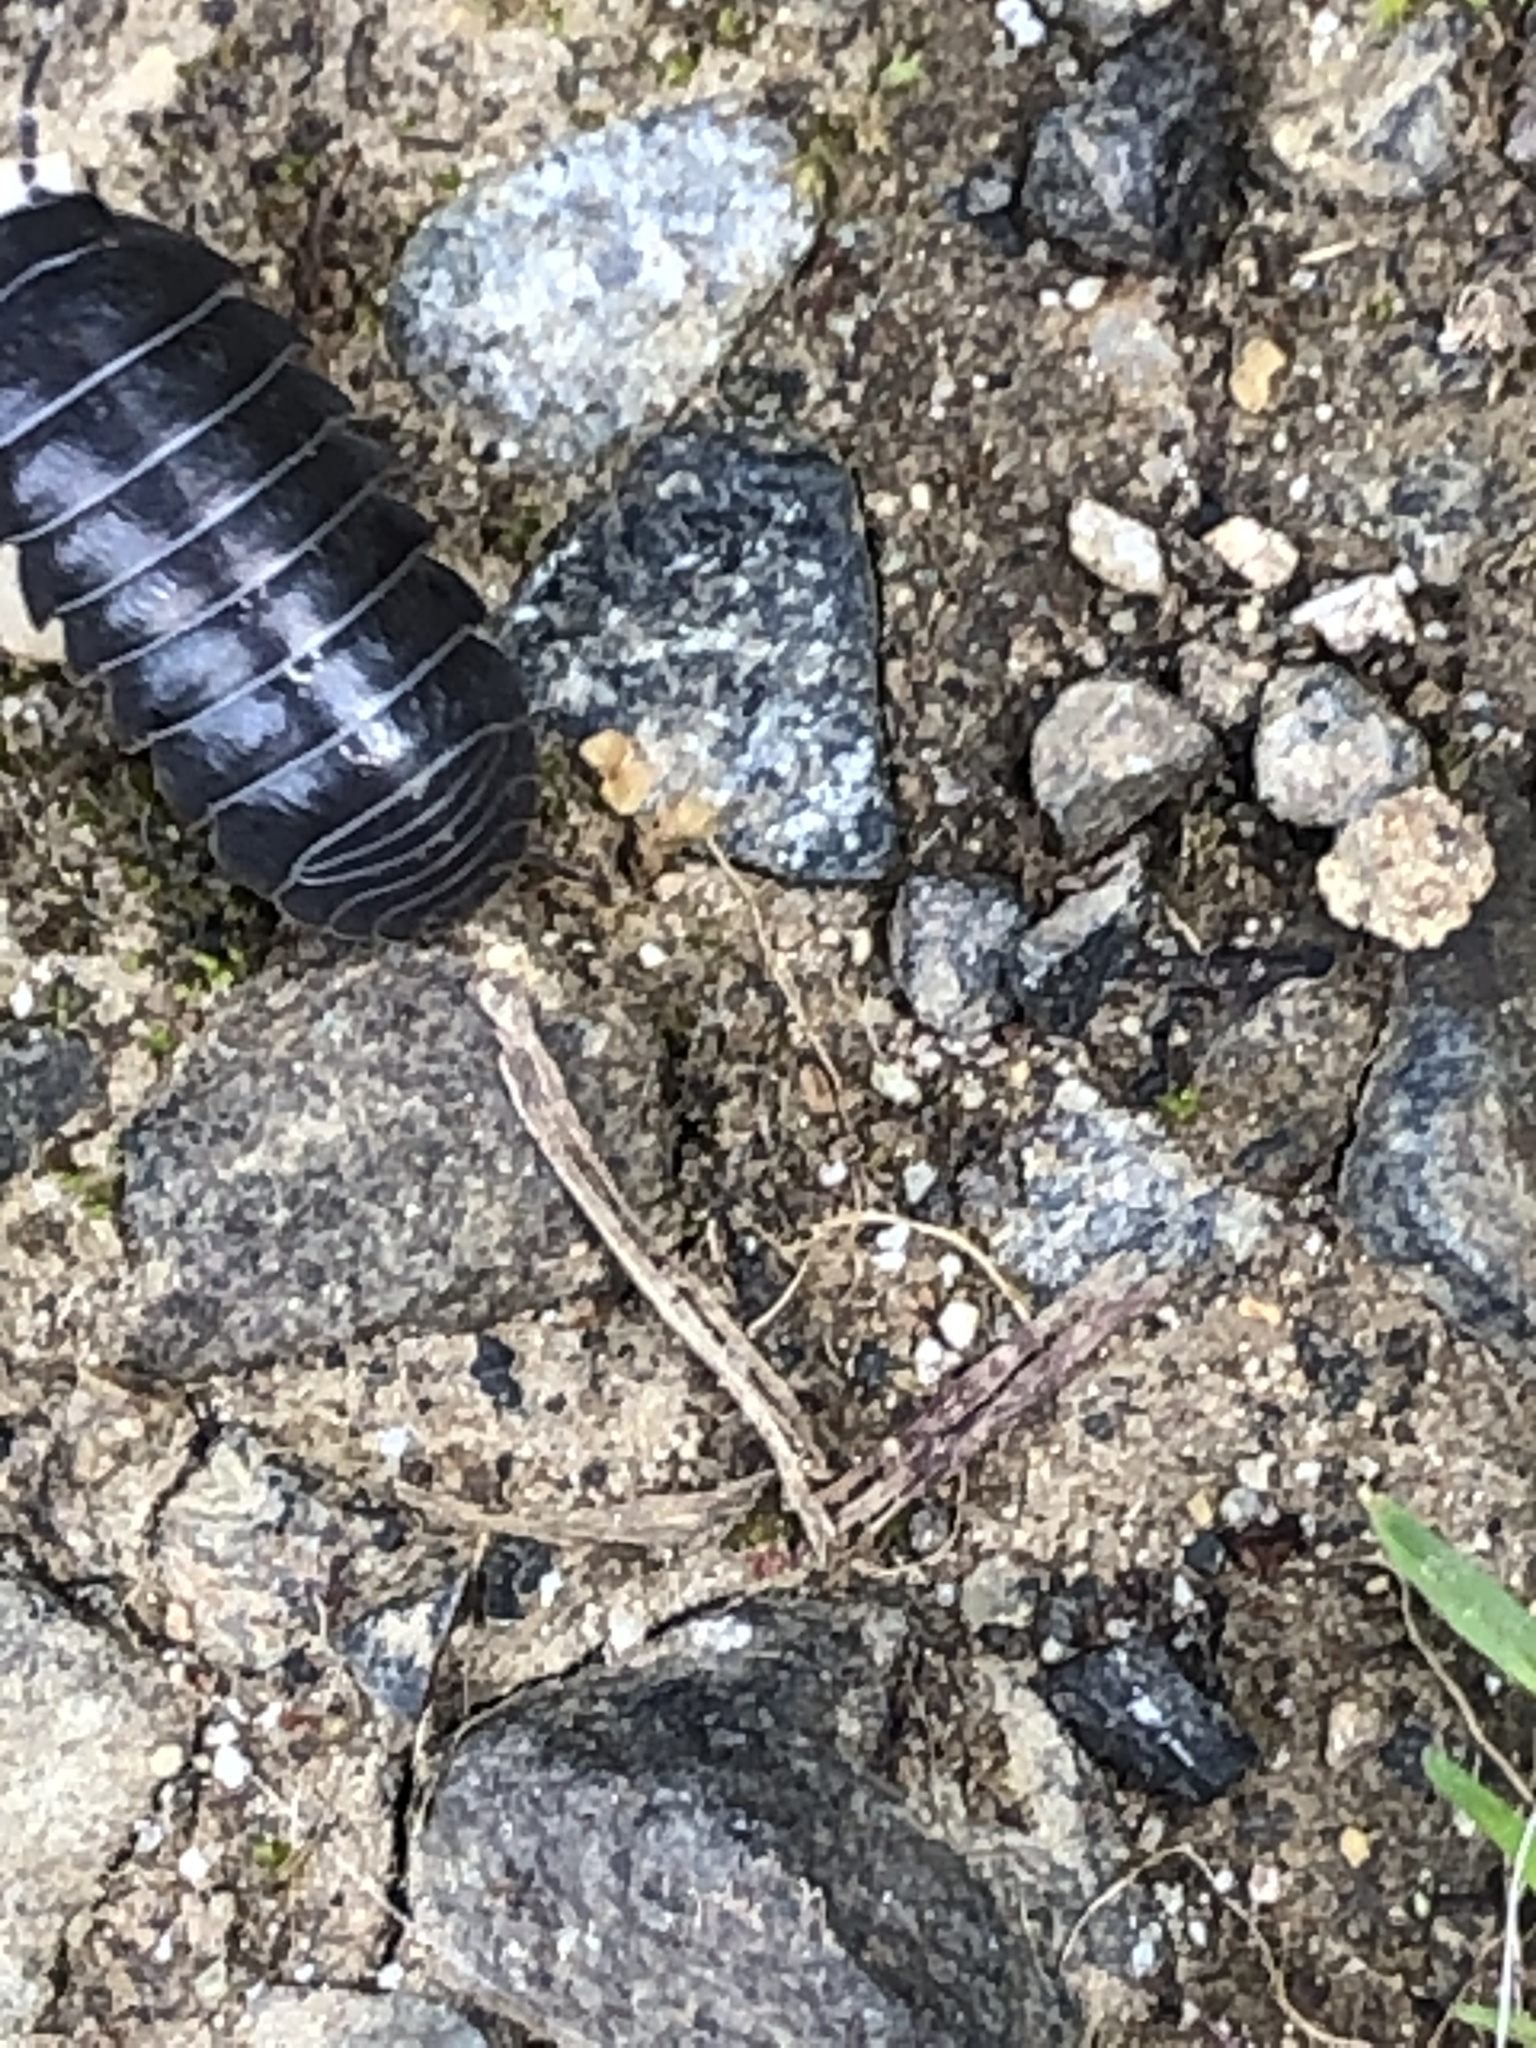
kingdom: Animalia
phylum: Arthropoda
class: Malacostraca
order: Isopoda
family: Armadillidiidae
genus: Armadillidium
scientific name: Armadillidium vulgare
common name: Common pill woodlouse
